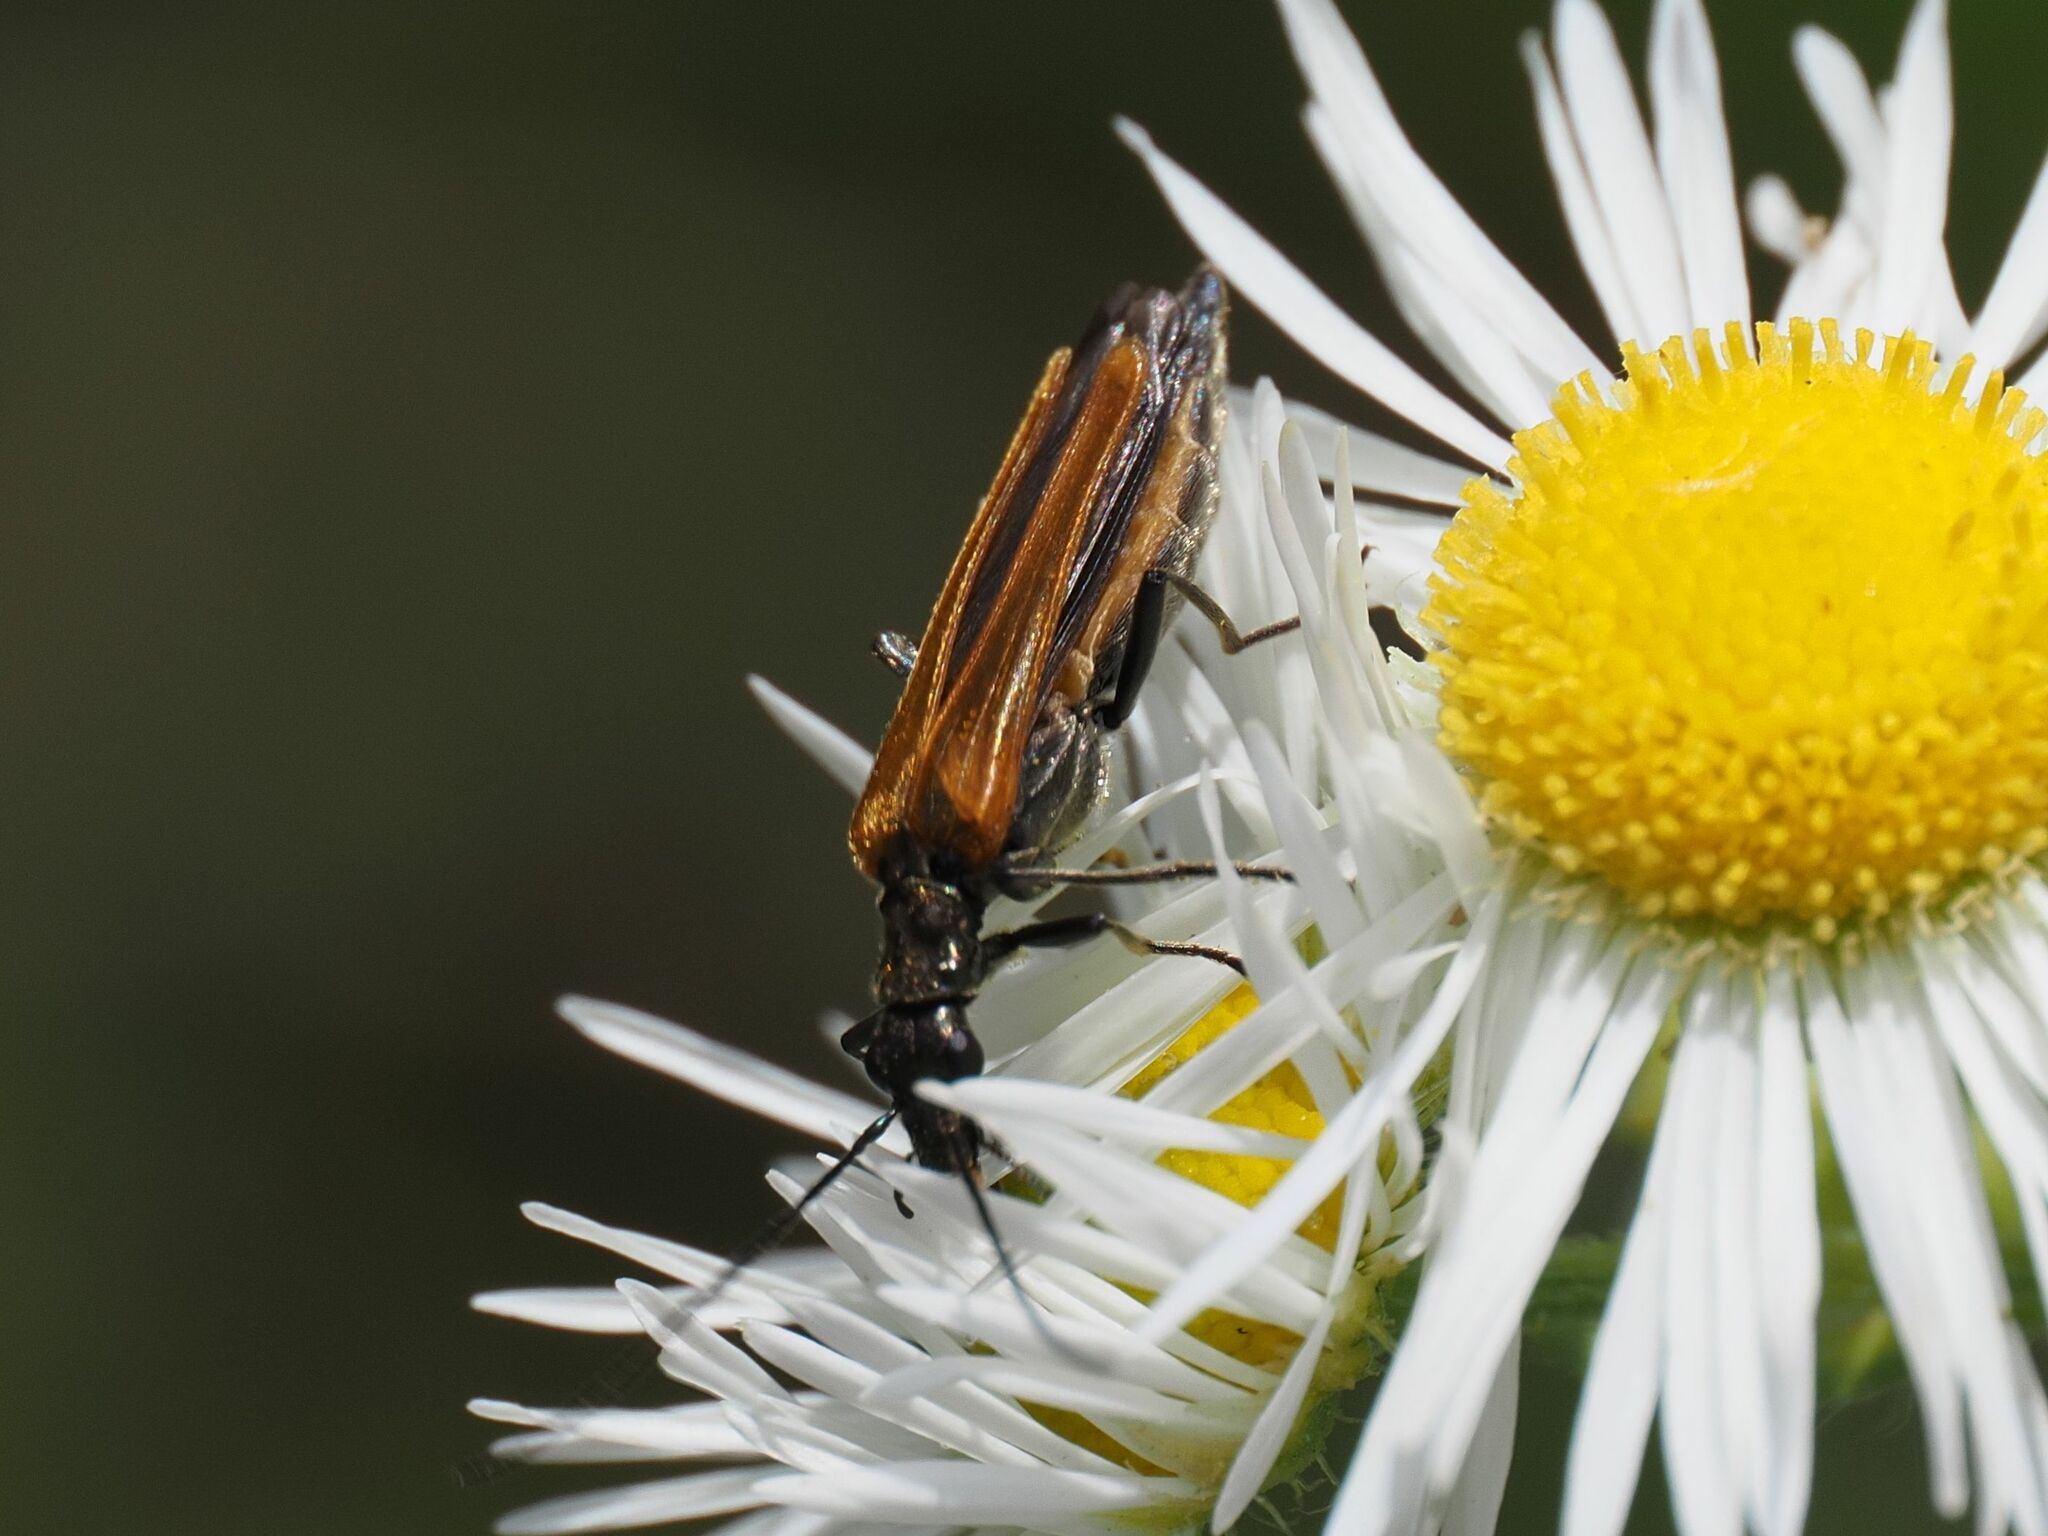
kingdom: Animalia
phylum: Arthropoda
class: Insecta
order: Coleoptera
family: Oedemeridae
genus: Oedemera
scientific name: Oedemera femorata
